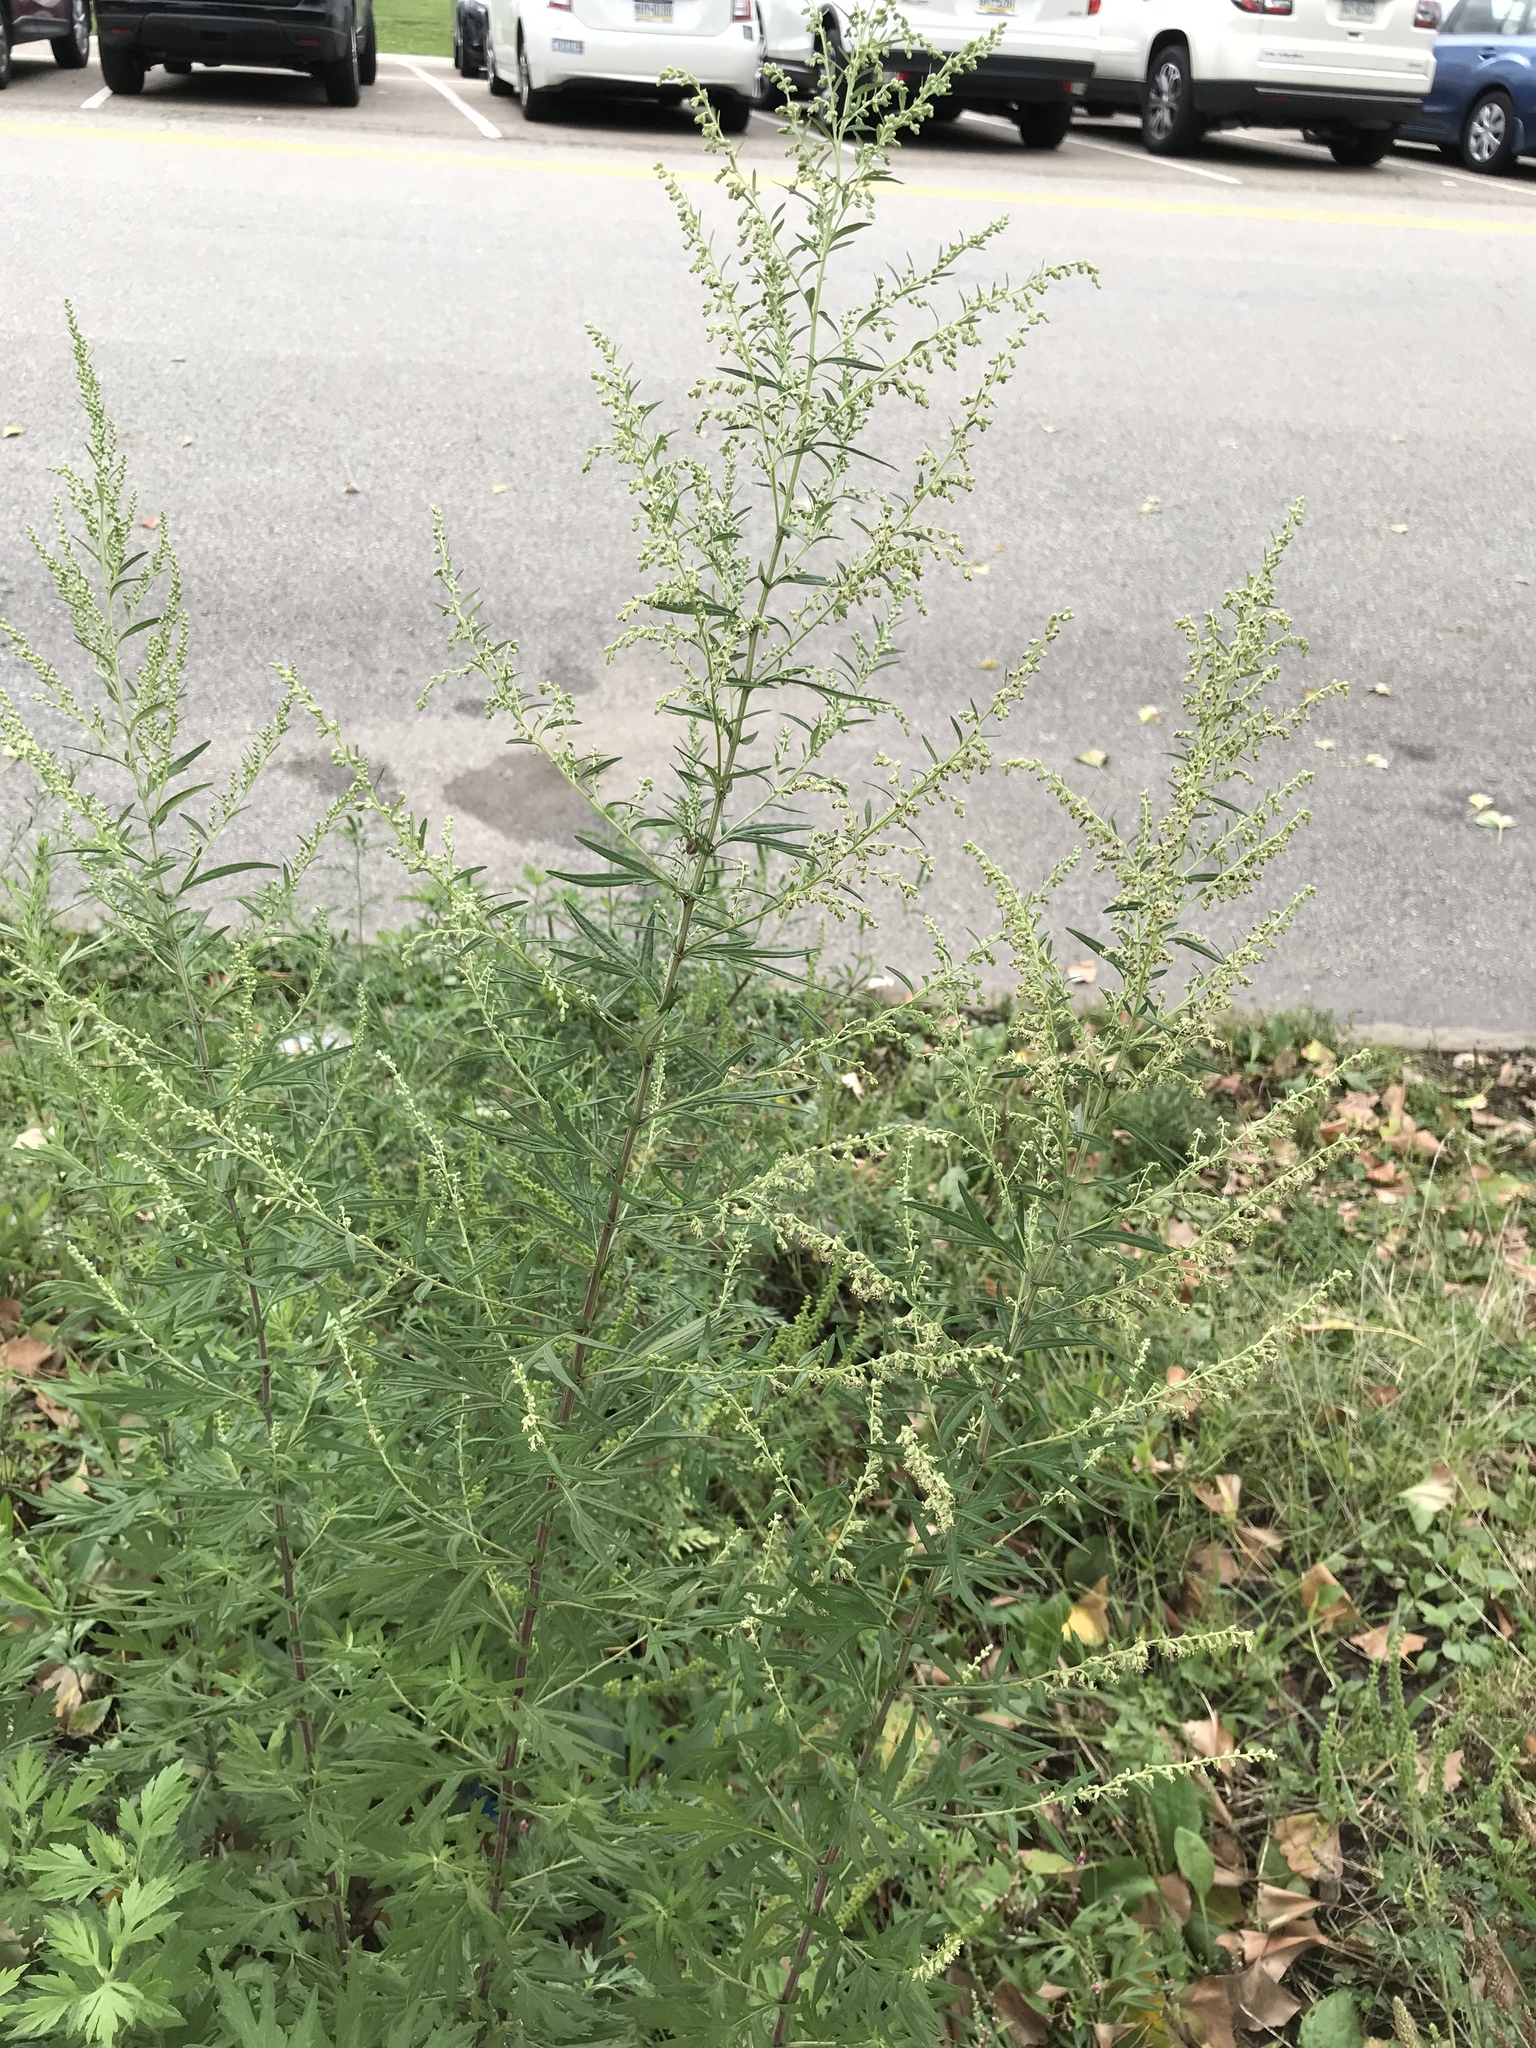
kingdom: Plantae
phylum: Tracheophyta
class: Magnoliopsida
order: Asterales
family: Asteraceae
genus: Artemisia
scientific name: Artemisia vulgaris
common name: Mugwort
